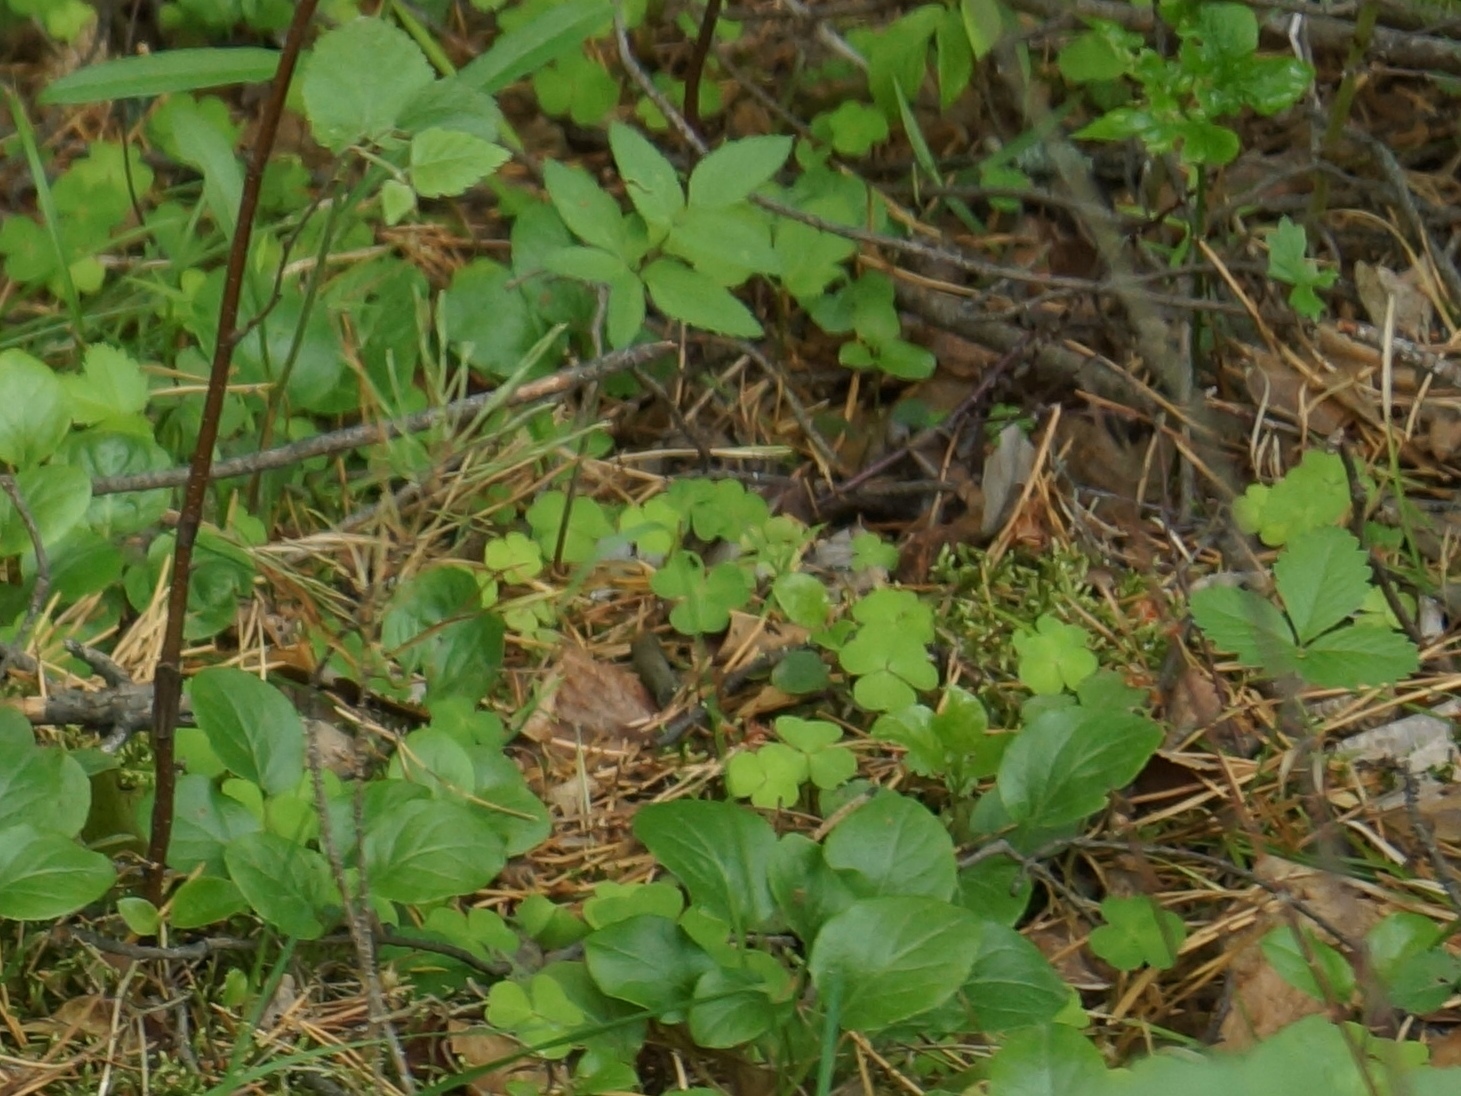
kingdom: Plantae
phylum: Tracheophyta
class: Magnoliopsida
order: Oxalidales
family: Oxalidaceae
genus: Oxalis
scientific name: Oxalis acetosella
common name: Wood-sorrel
